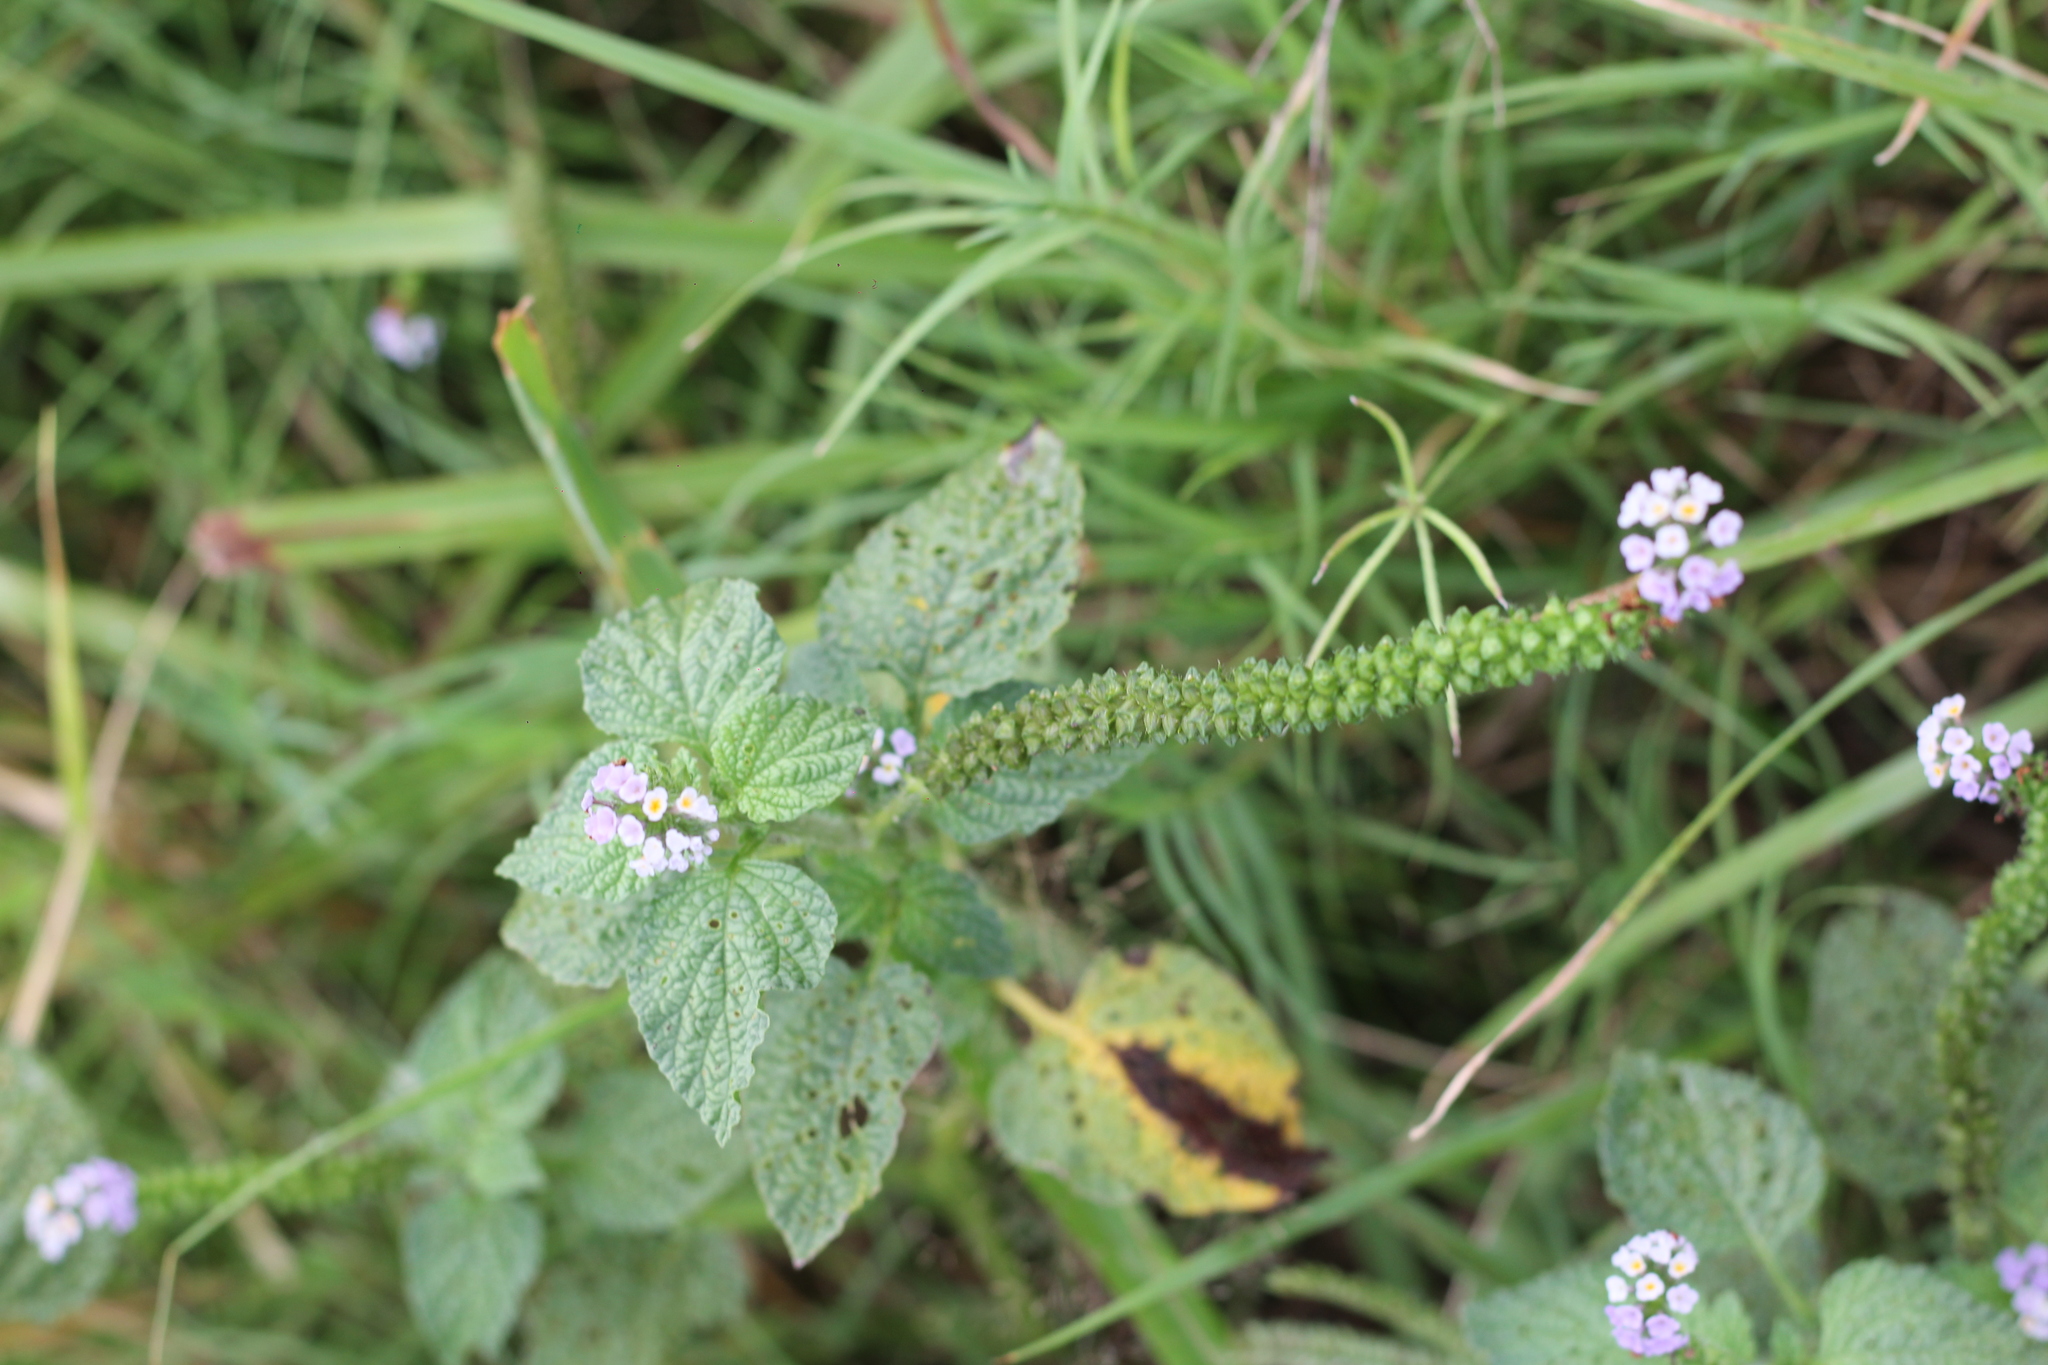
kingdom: Plantae
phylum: Tracheophyta
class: Magnoliopsida
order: Boraginales
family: Heliotropiaceae
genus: Heliotropium
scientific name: Heliotropium elongatum
